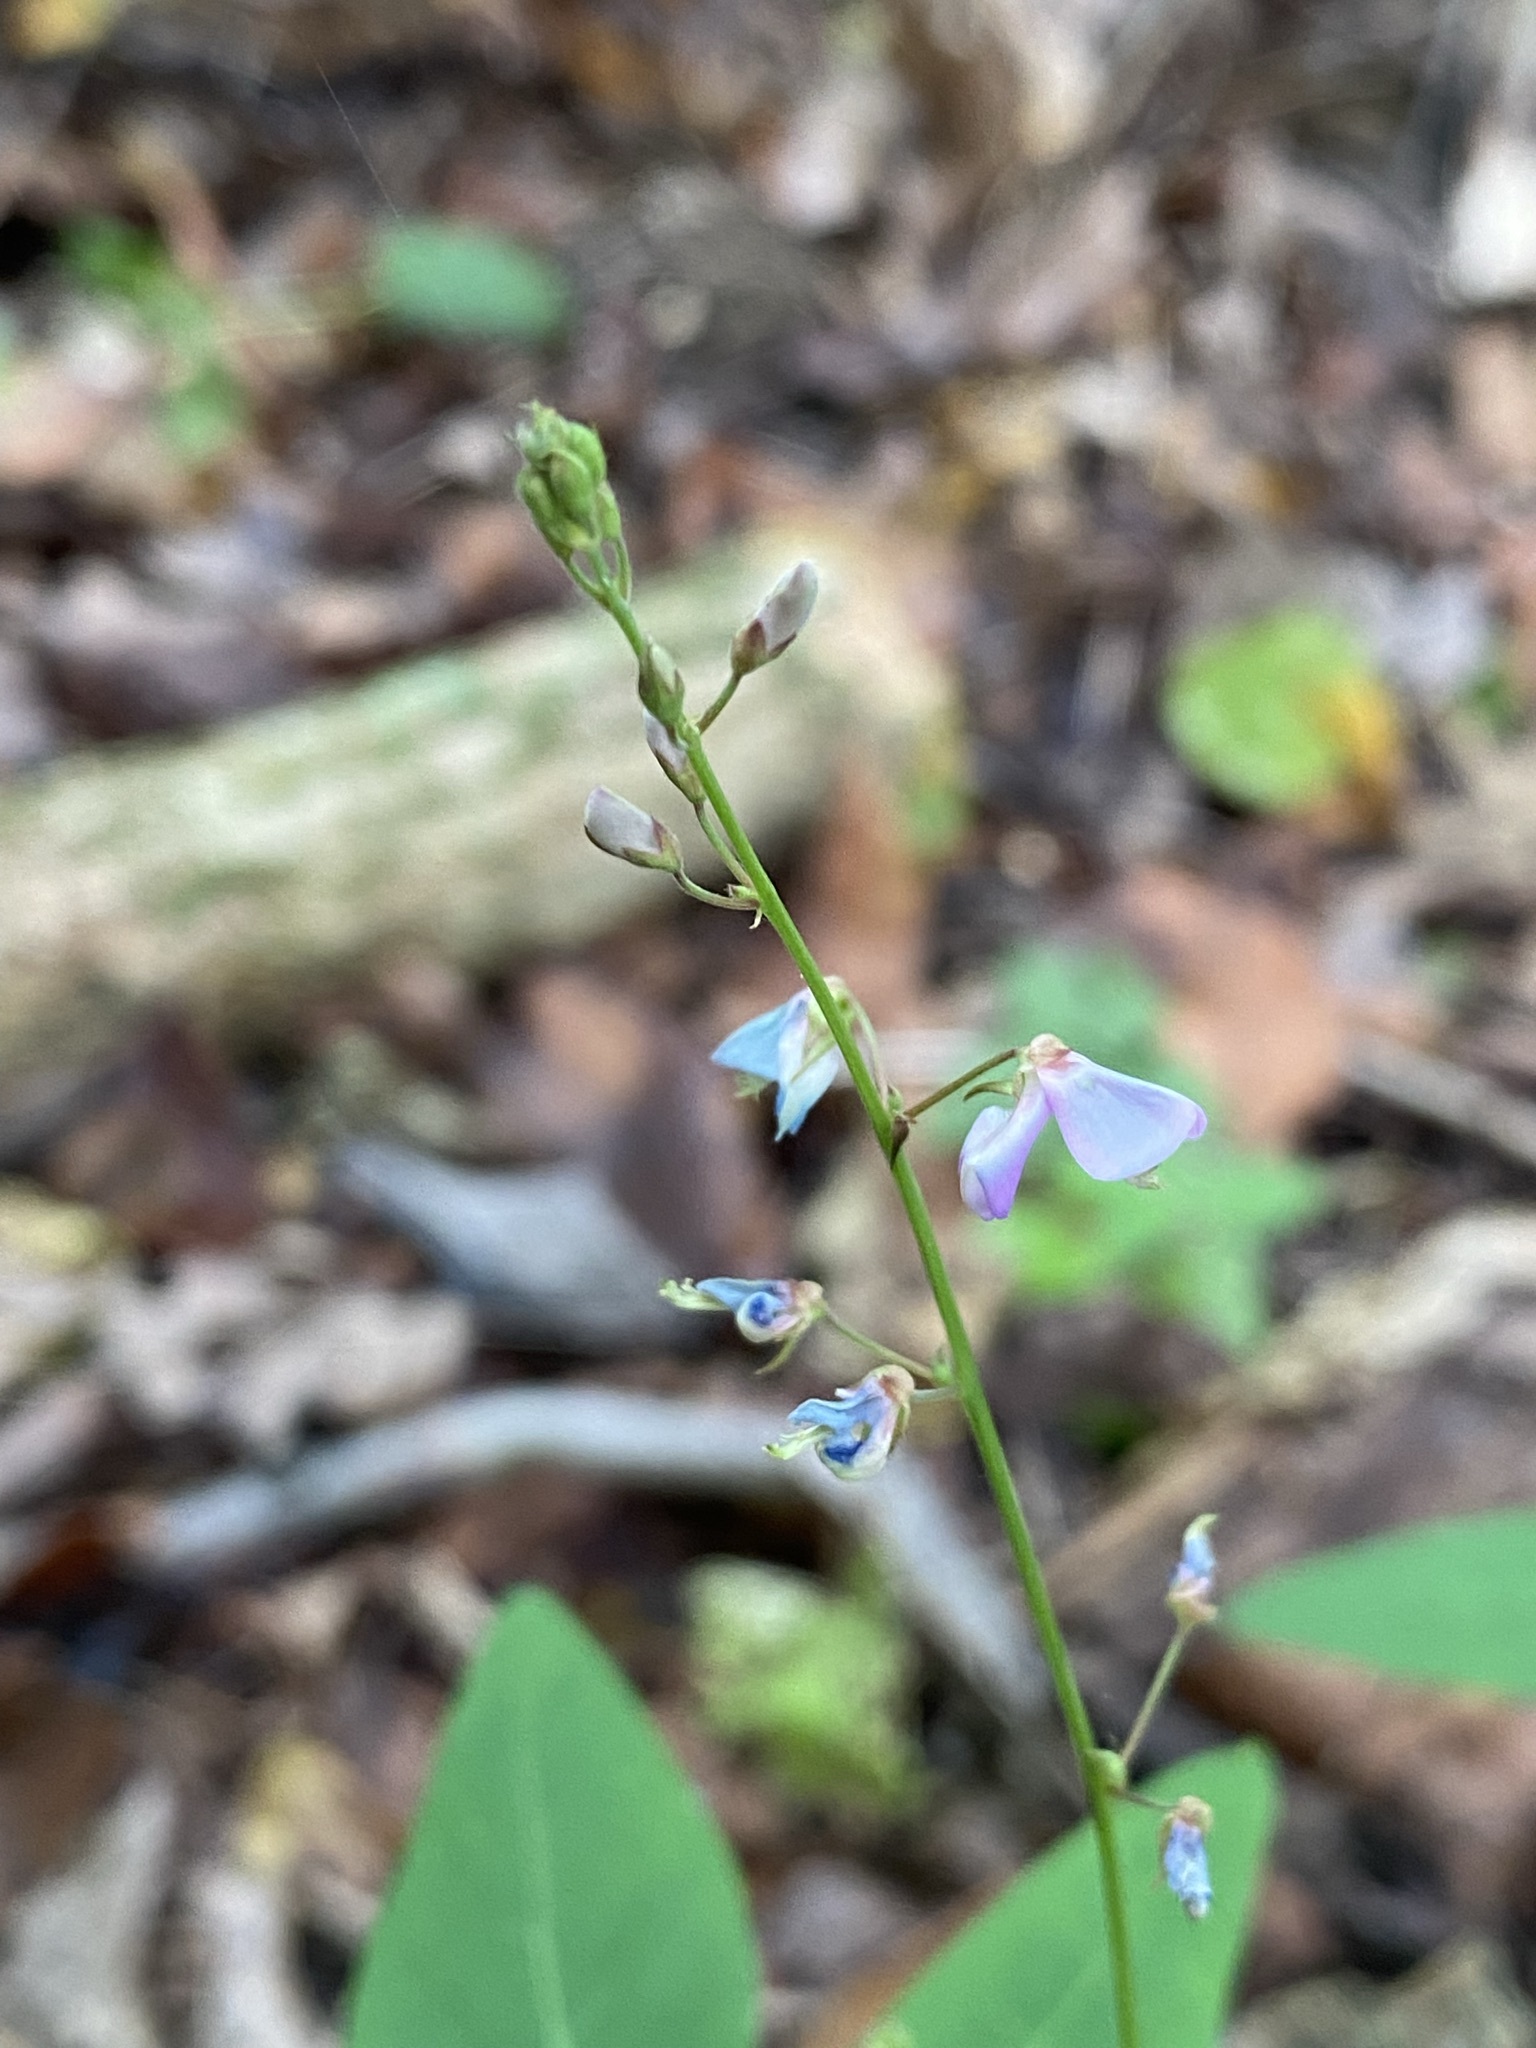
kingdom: Plantae
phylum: Tracheophyta
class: Magnoliopsida
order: Fabales
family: Fabaceae
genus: Desmodium
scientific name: Desmodium cuspidatum
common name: Big tick trefoil
